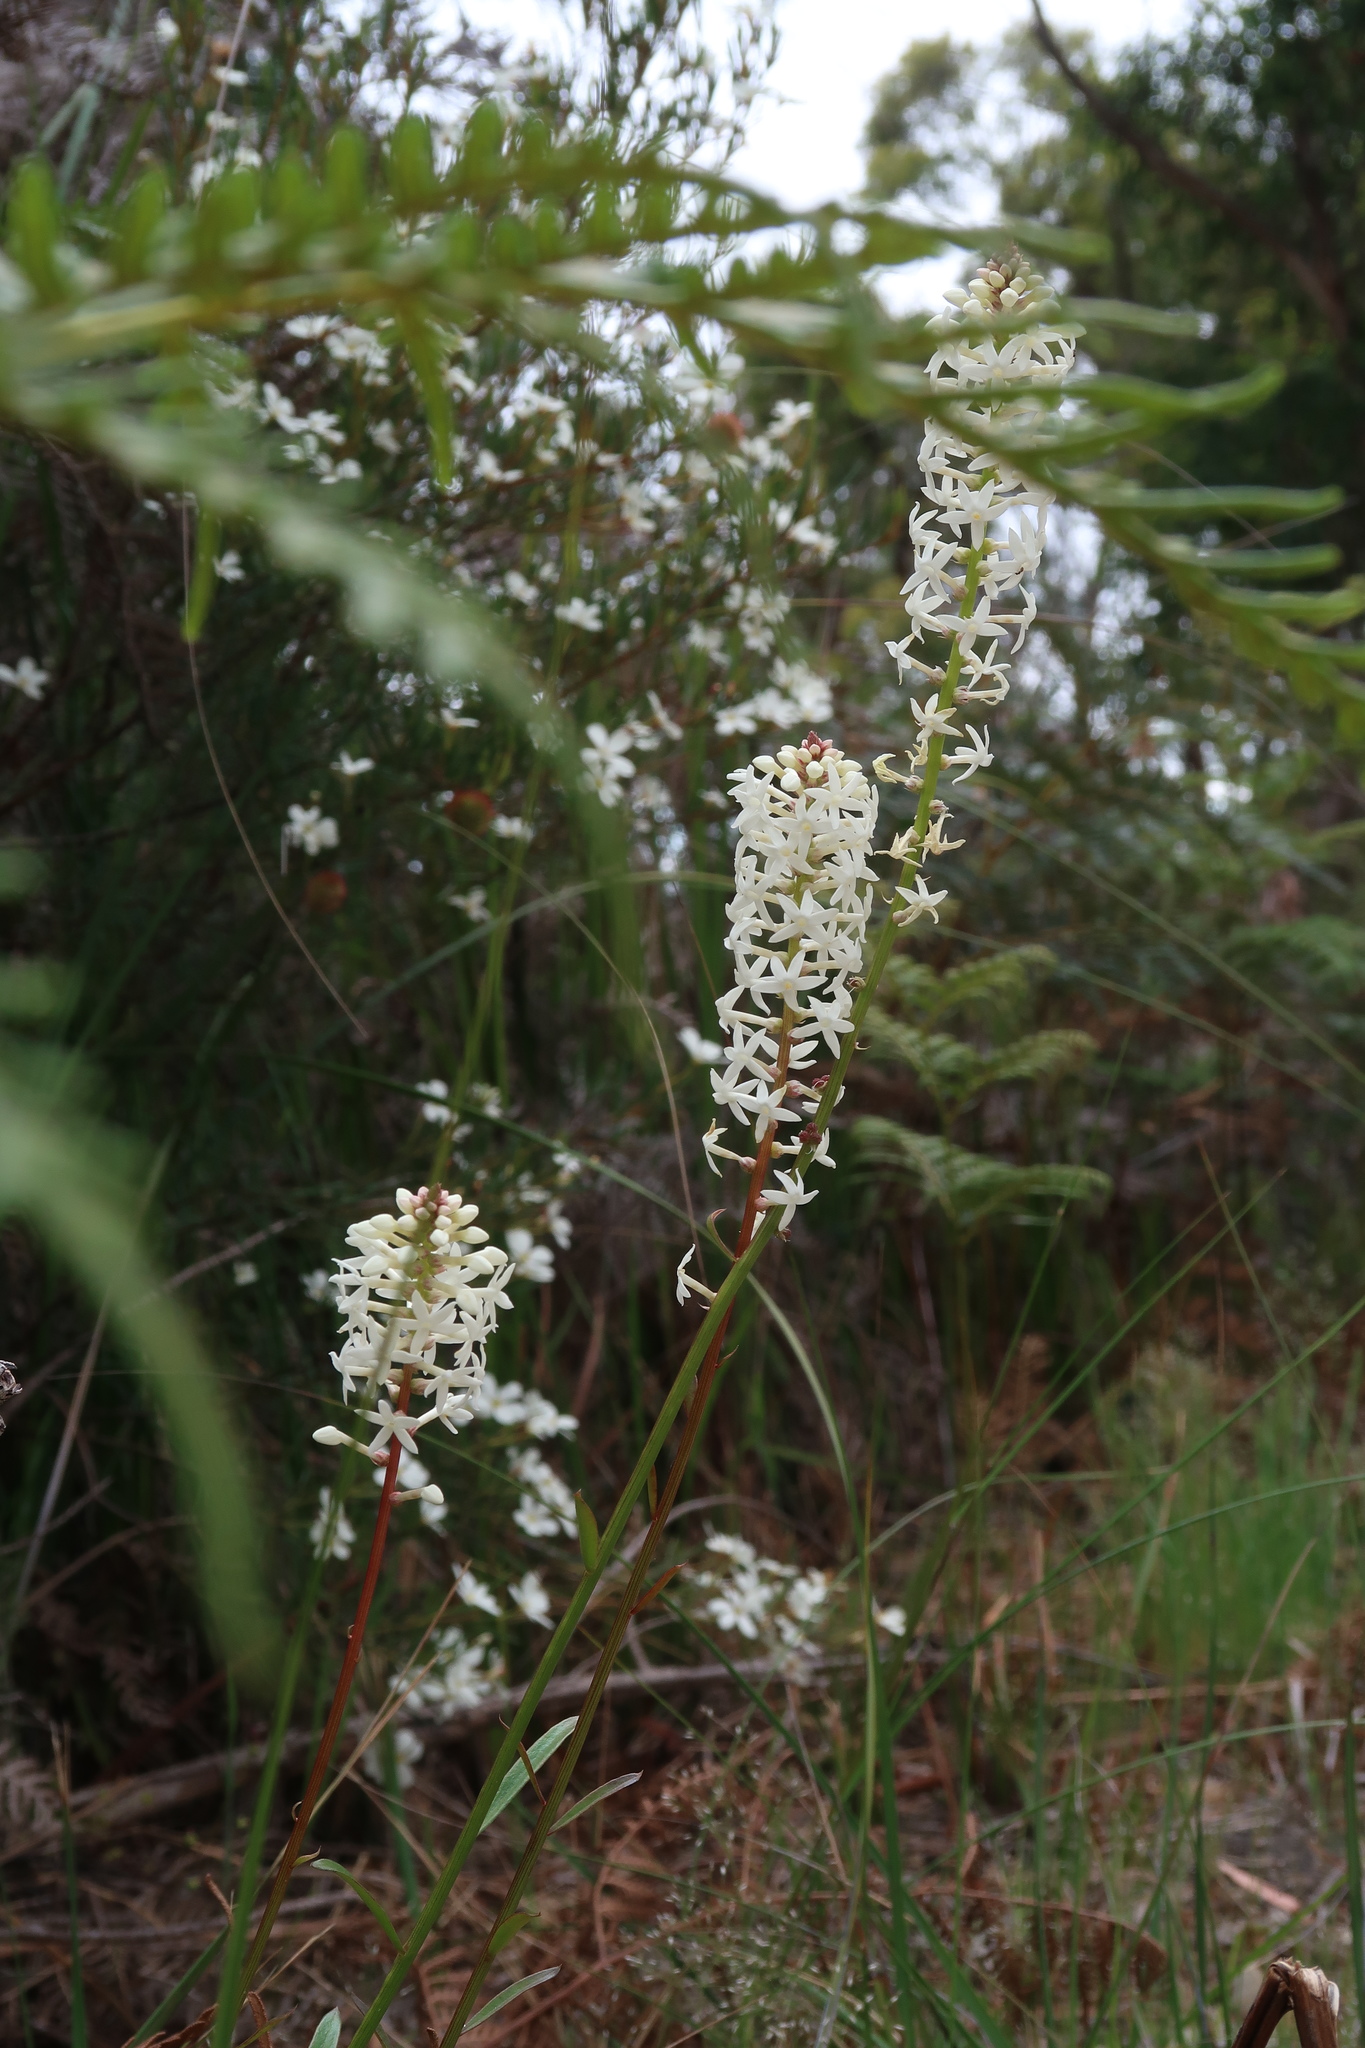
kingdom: Plantae
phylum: Tracheophyta
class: Magnoliopsida
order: Celastrales
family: Celastraceae
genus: Stackhousia
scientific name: Stackhousia monogyna
